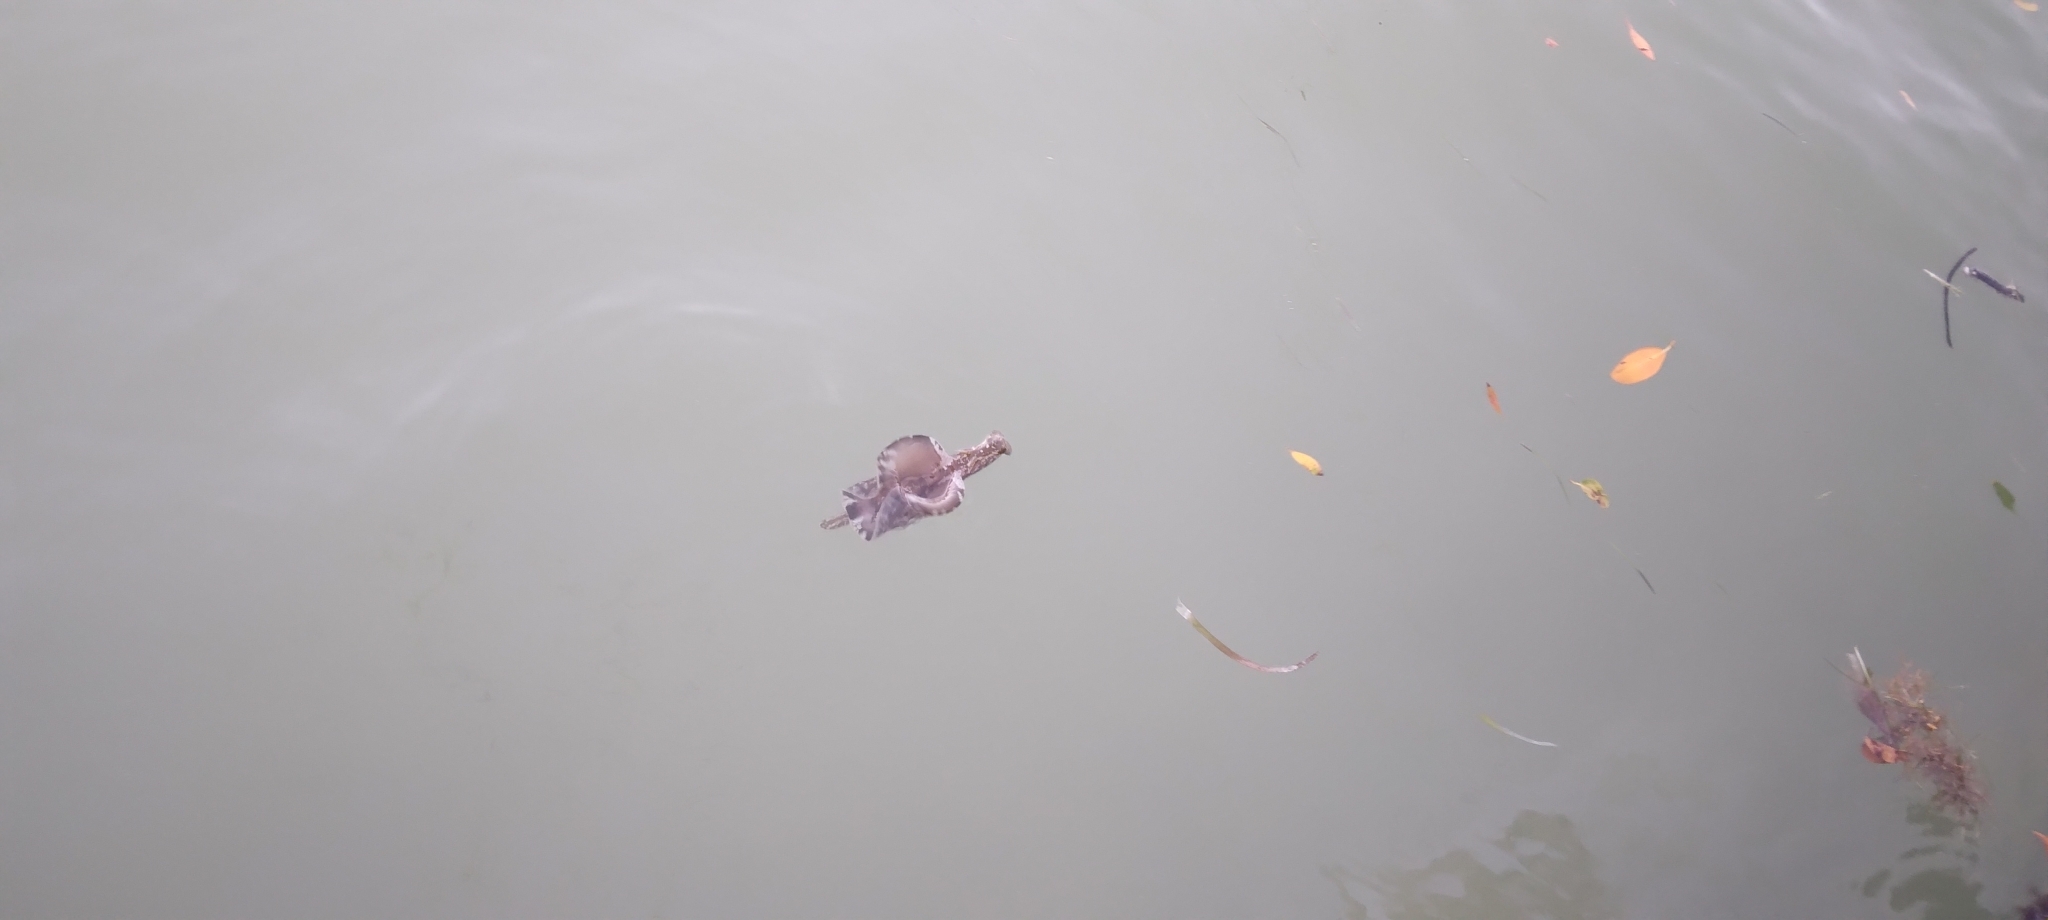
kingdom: Animalia
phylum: Mollusca
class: Gastropoda
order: Aplysiida
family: Aplysiidae
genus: Aplysia
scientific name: Aplysia brasiliana
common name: Mottled seahare
